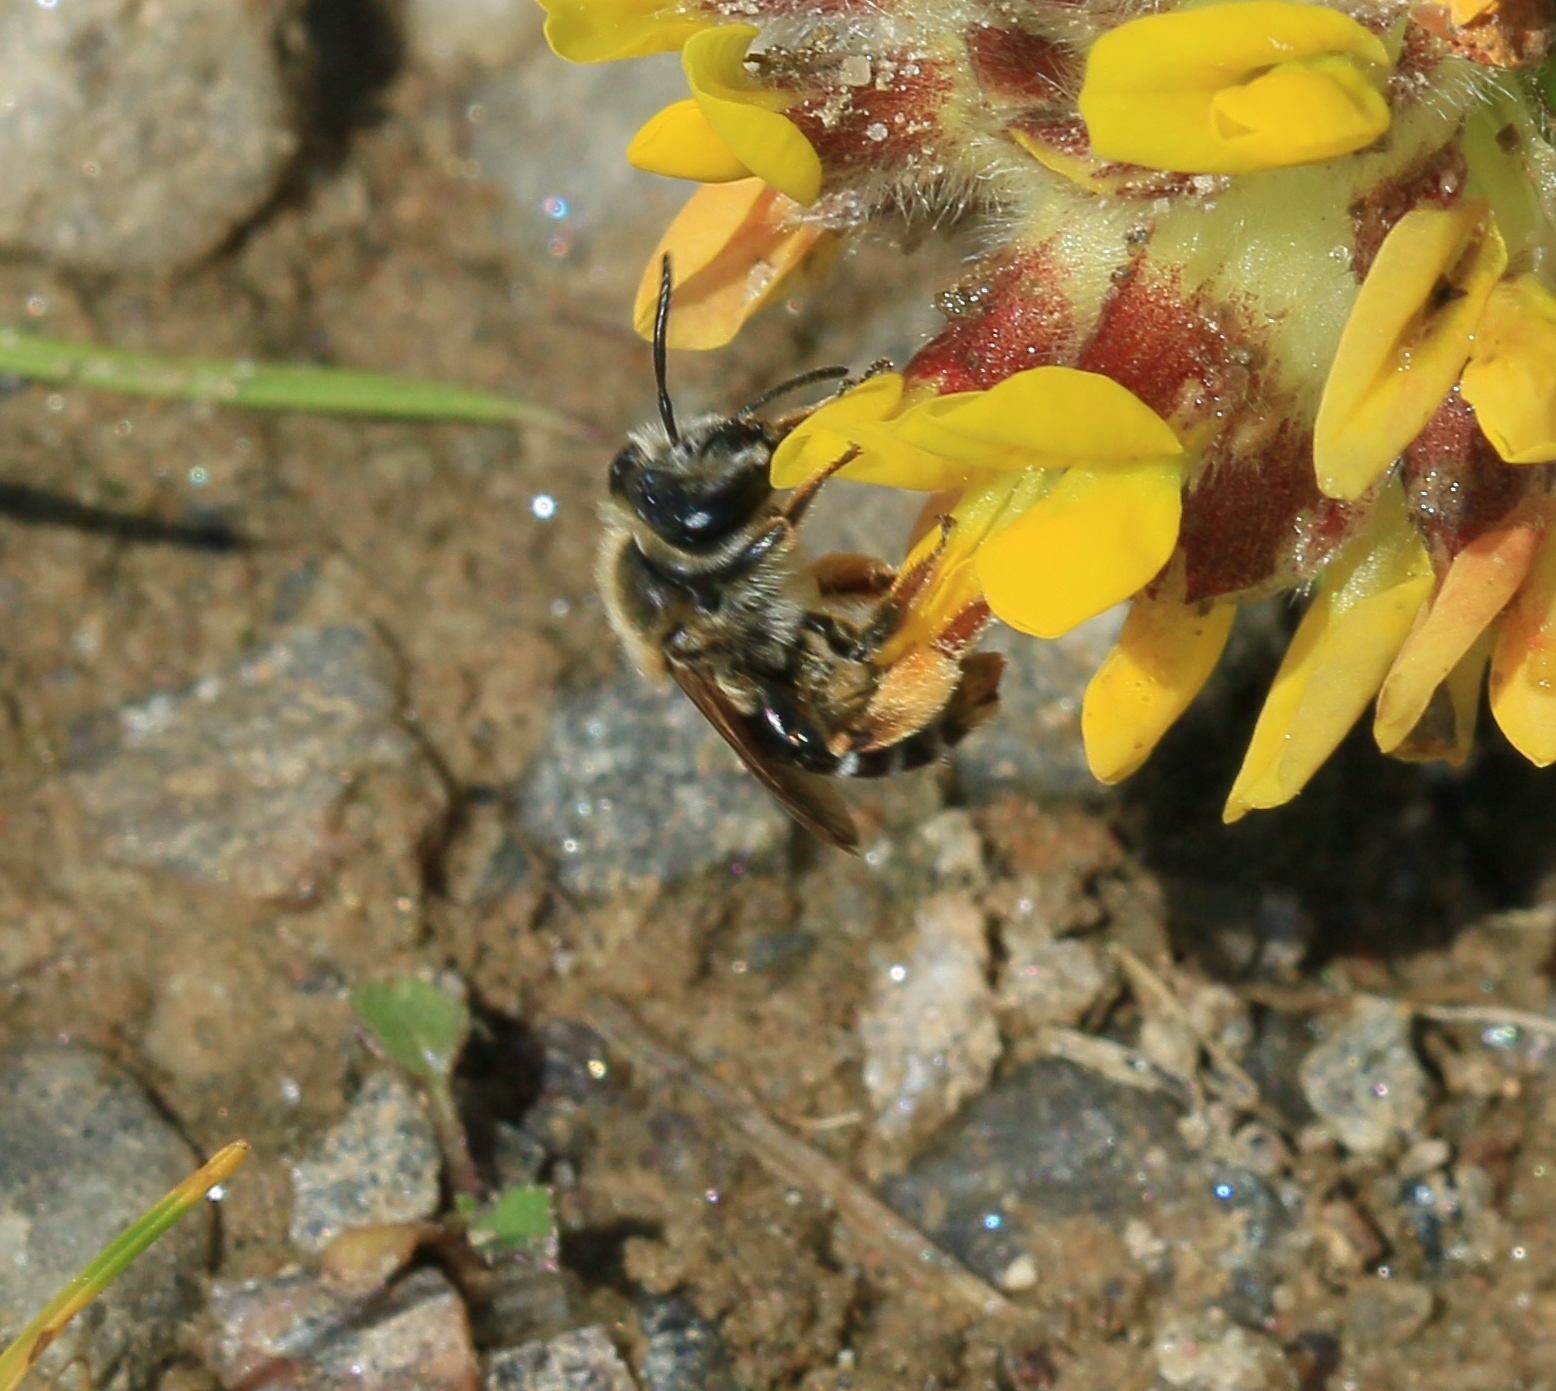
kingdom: Animalia
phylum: Arthropoda
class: Insecta
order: Hymenoptera
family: Andrenidae
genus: Andrena
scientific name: Andrena wilkella
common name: Wilke's mining bee
